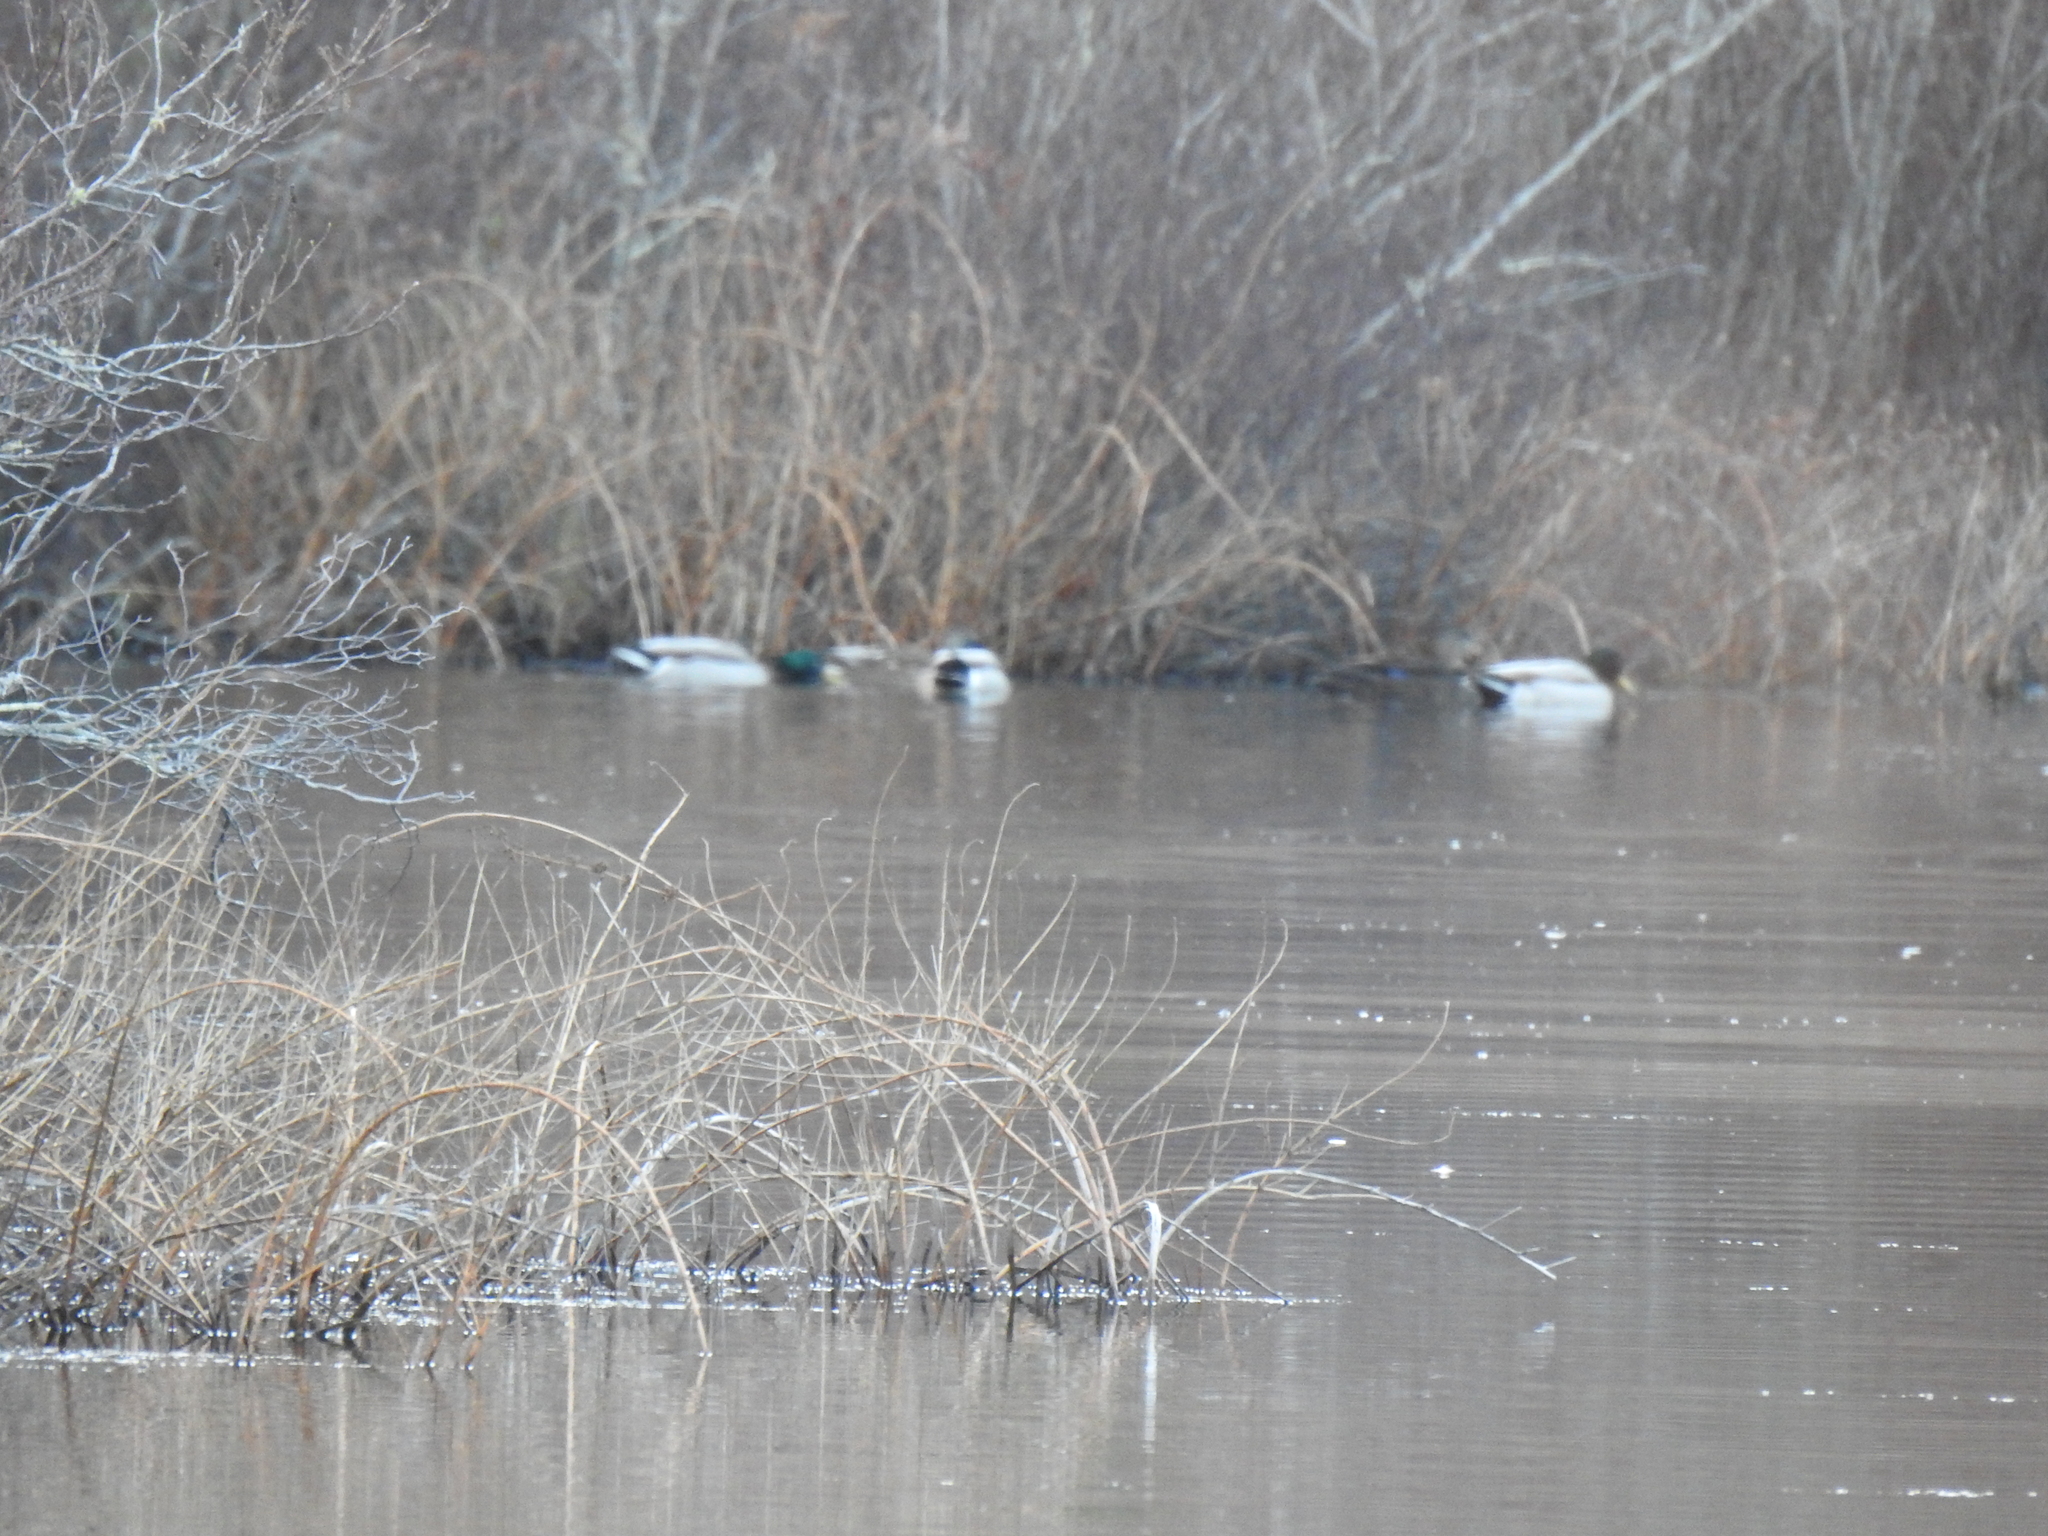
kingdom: Animalia
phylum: Chordata
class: Aves
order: Anseriformes
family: Anatidae
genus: Anas
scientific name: Anas platyrhynchos
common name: Mallard
